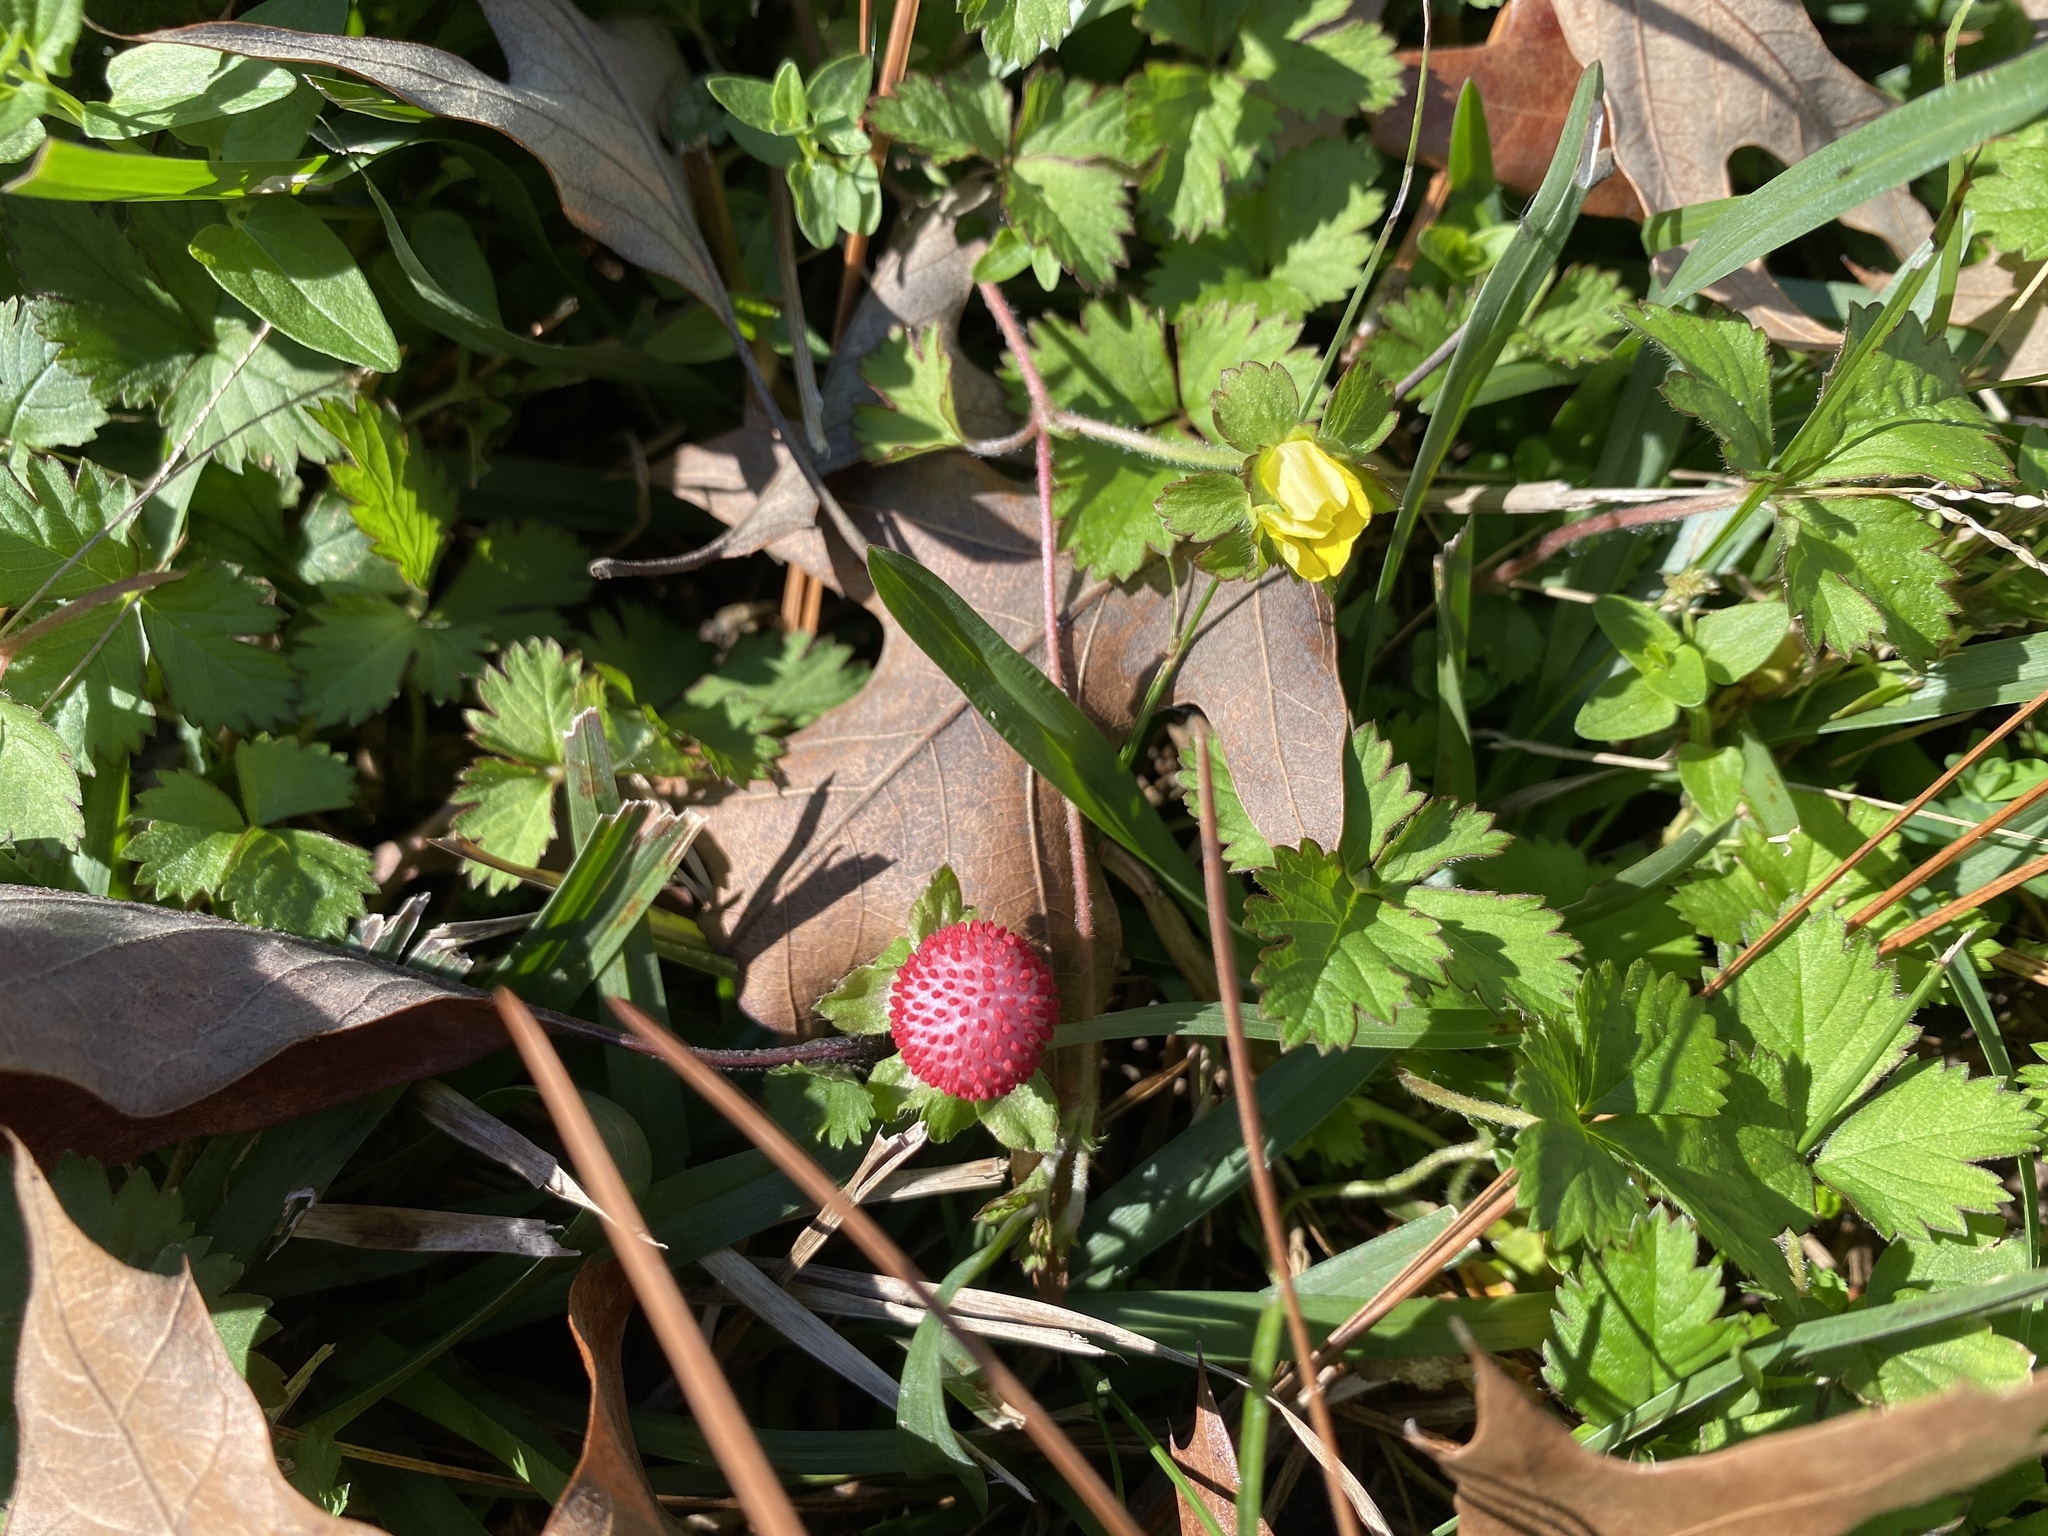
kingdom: Plantae
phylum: Tracheophyta
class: Magnoliopsida
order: Rosales
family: Rosaceae
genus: Potentilla
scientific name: Potentilla indica
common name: Yellow-flowered strawberry
